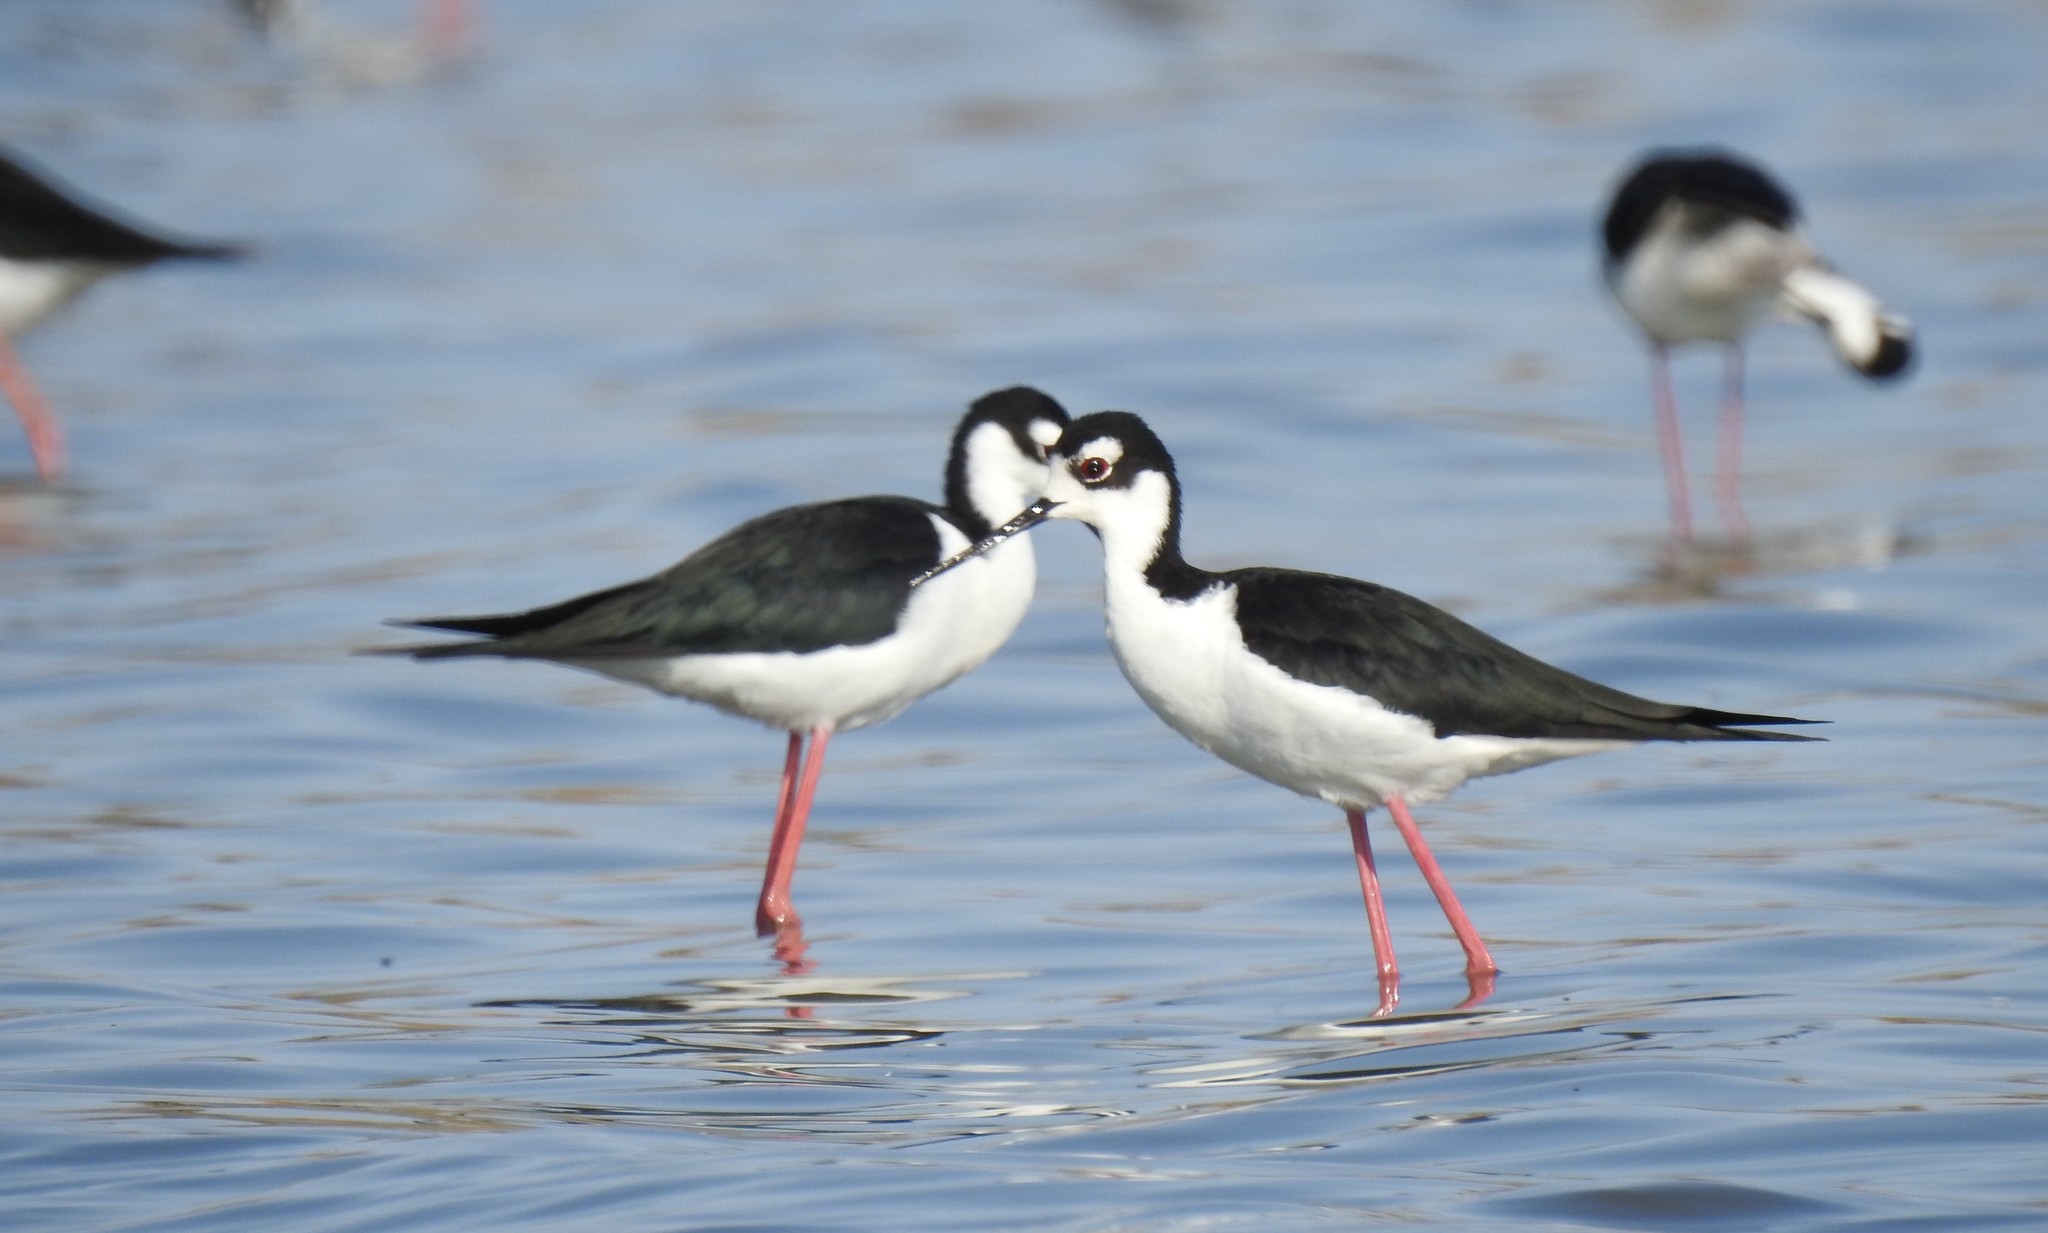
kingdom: Animalia
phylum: Chordata
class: Aves
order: Charadriiformes
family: Recurvirostridae
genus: Himantopus
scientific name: Himantopus mexicanus
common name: Black-necked stilt
